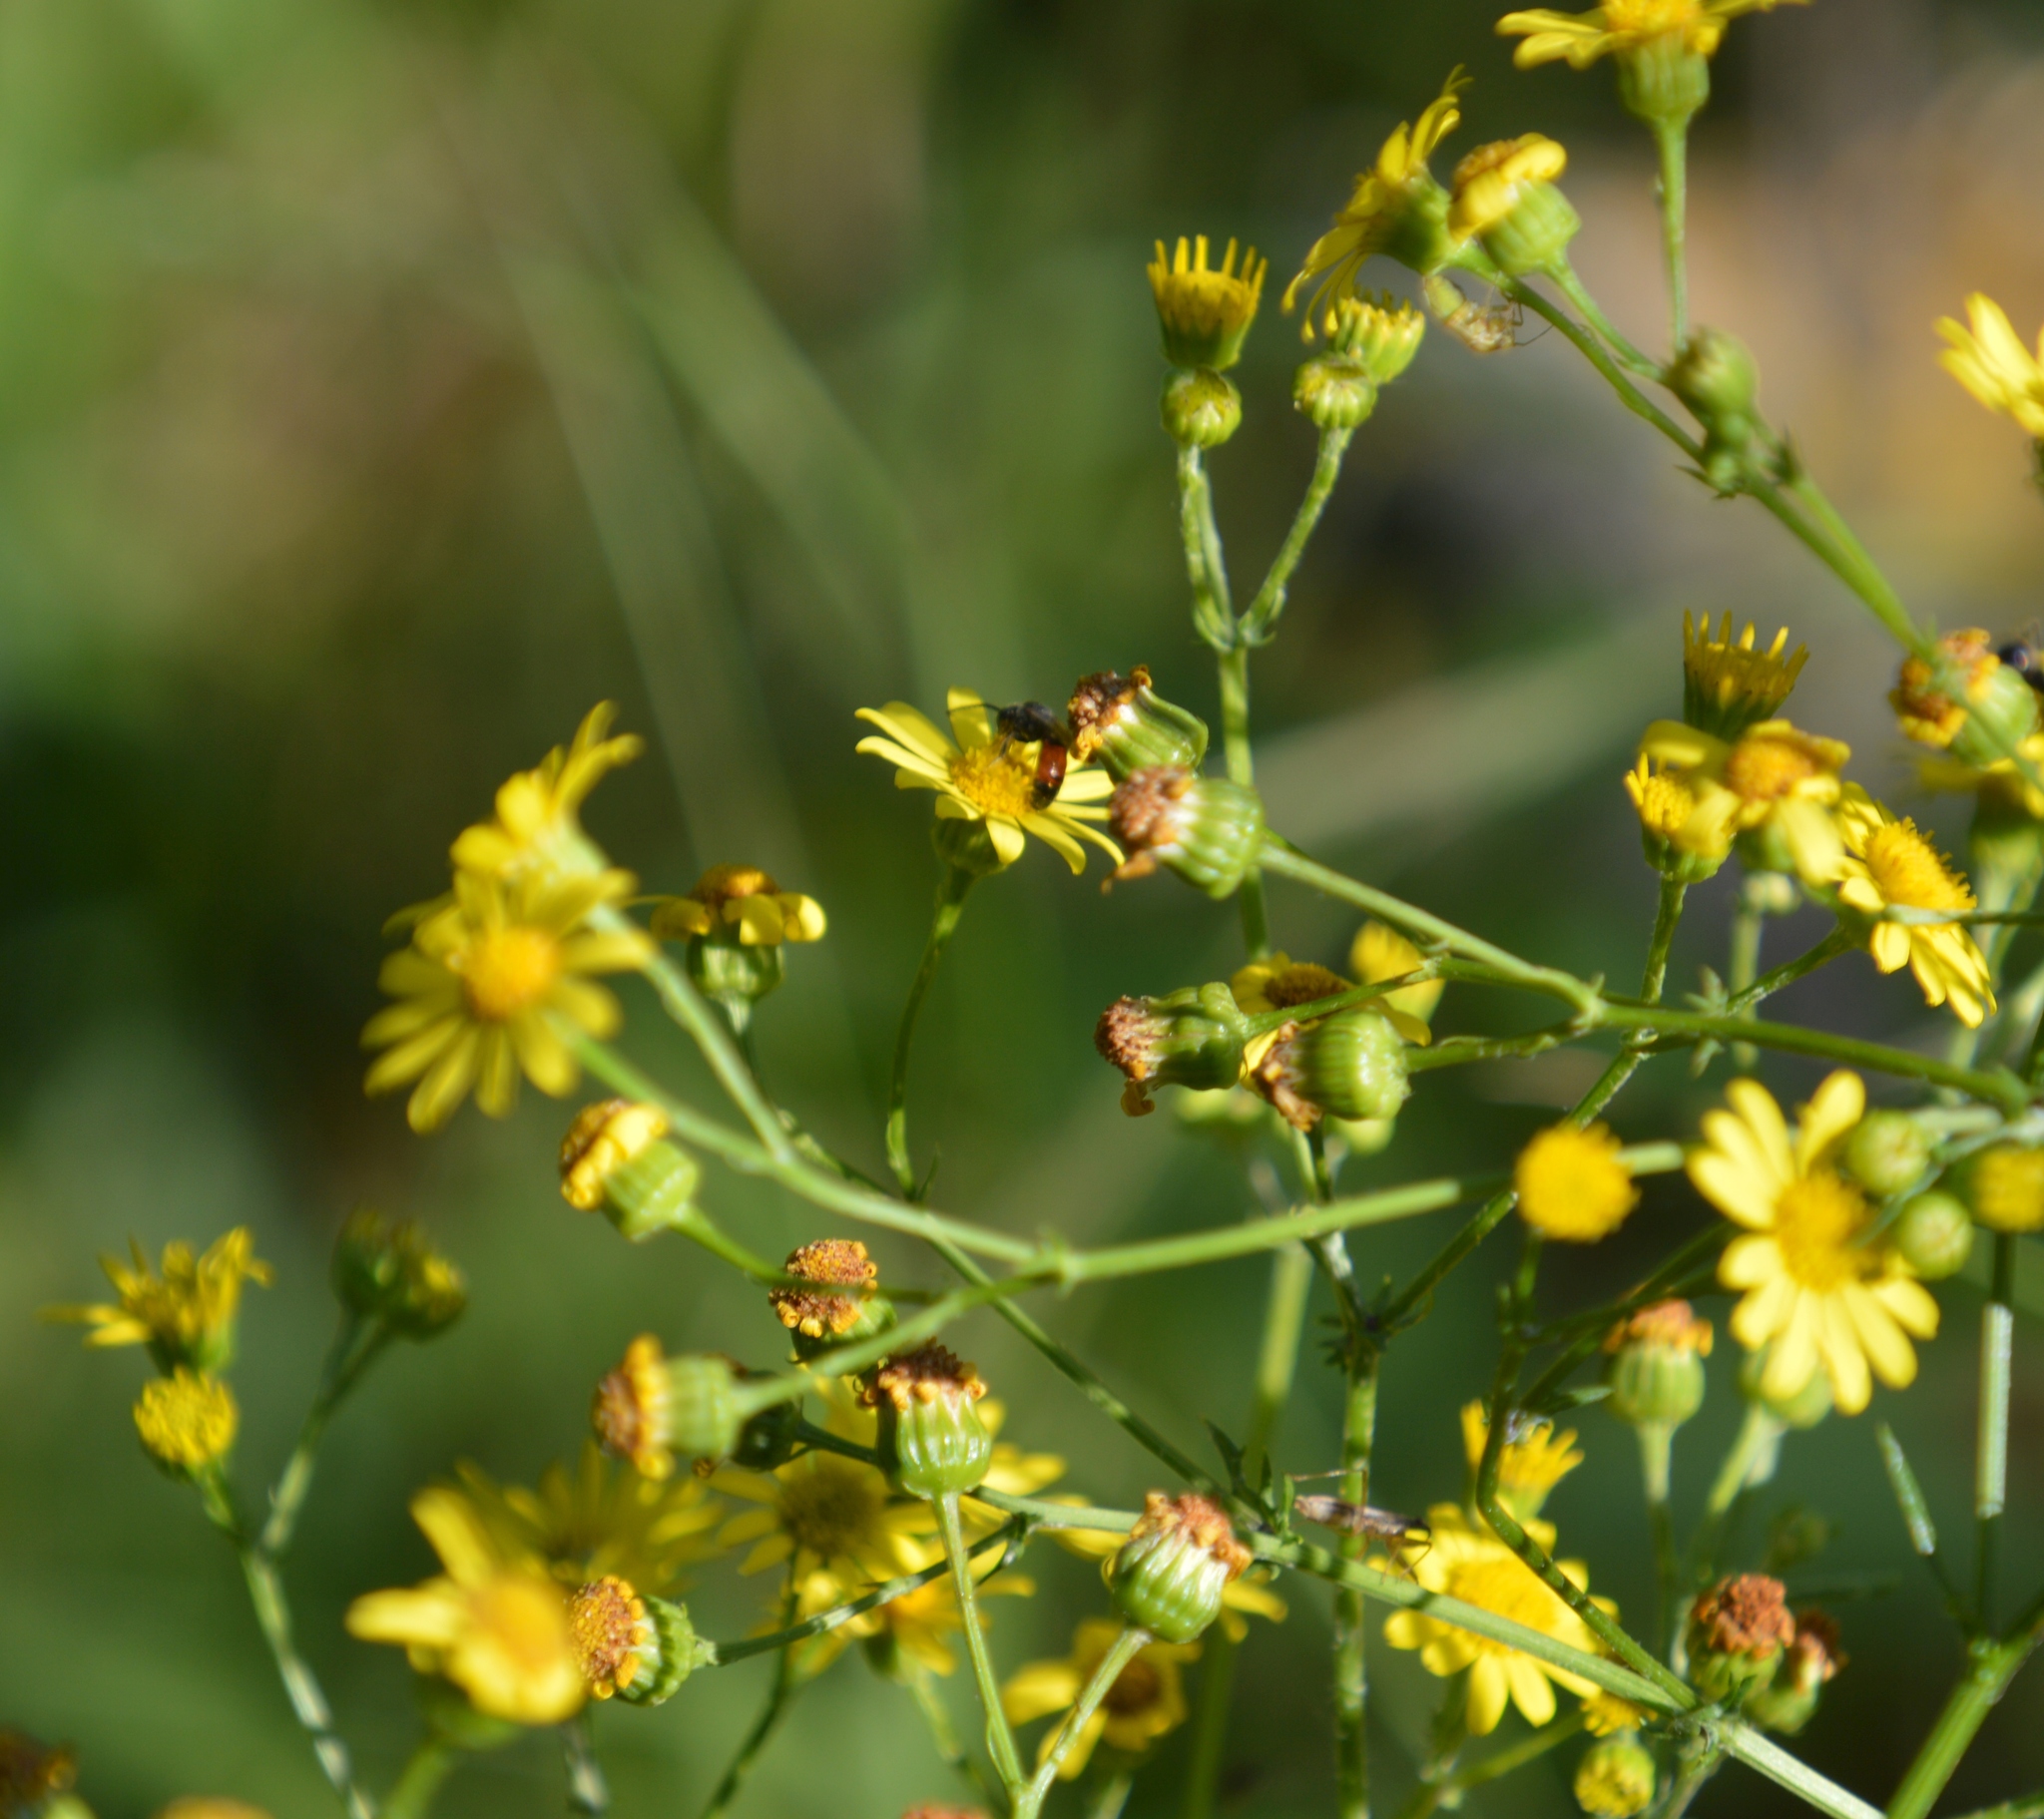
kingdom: Animalia
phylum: Arthropoda
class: Insecta
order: Hymenoptera
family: Halictidae
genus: Sphecodes
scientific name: Sphecodes
